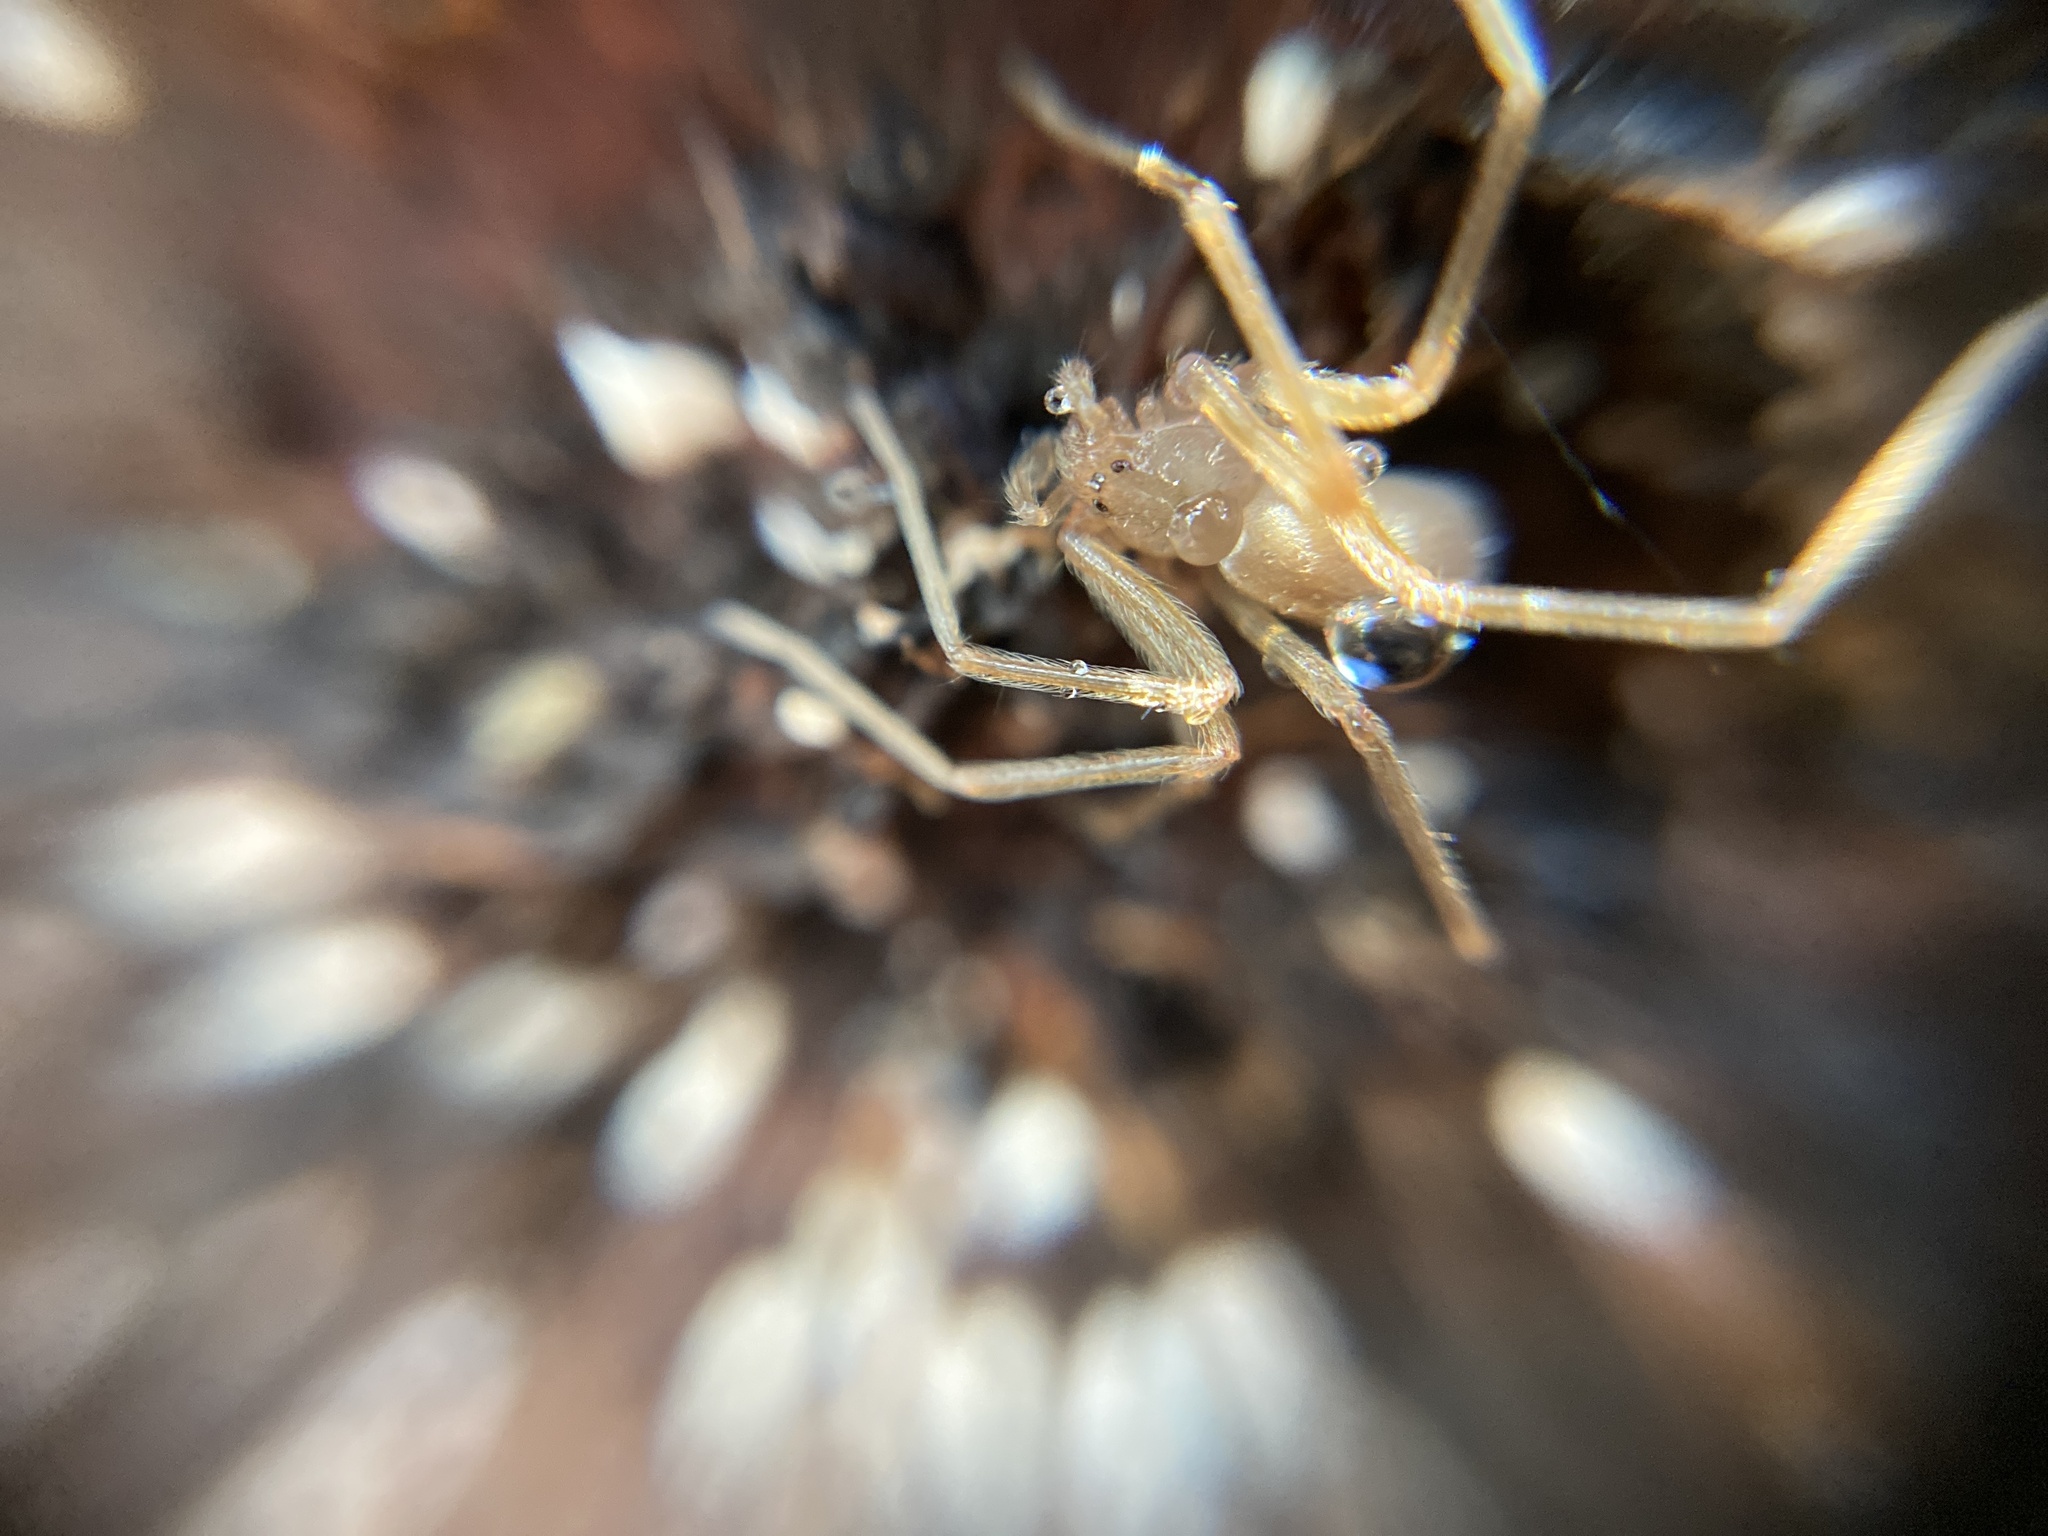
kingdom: Animalia
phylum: Arthropoda
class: Arachnida
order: Araneae
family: Sicariidae
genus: Loxosceles
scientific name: Loxosceles rufescens
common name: Mediterranean recluse spider
